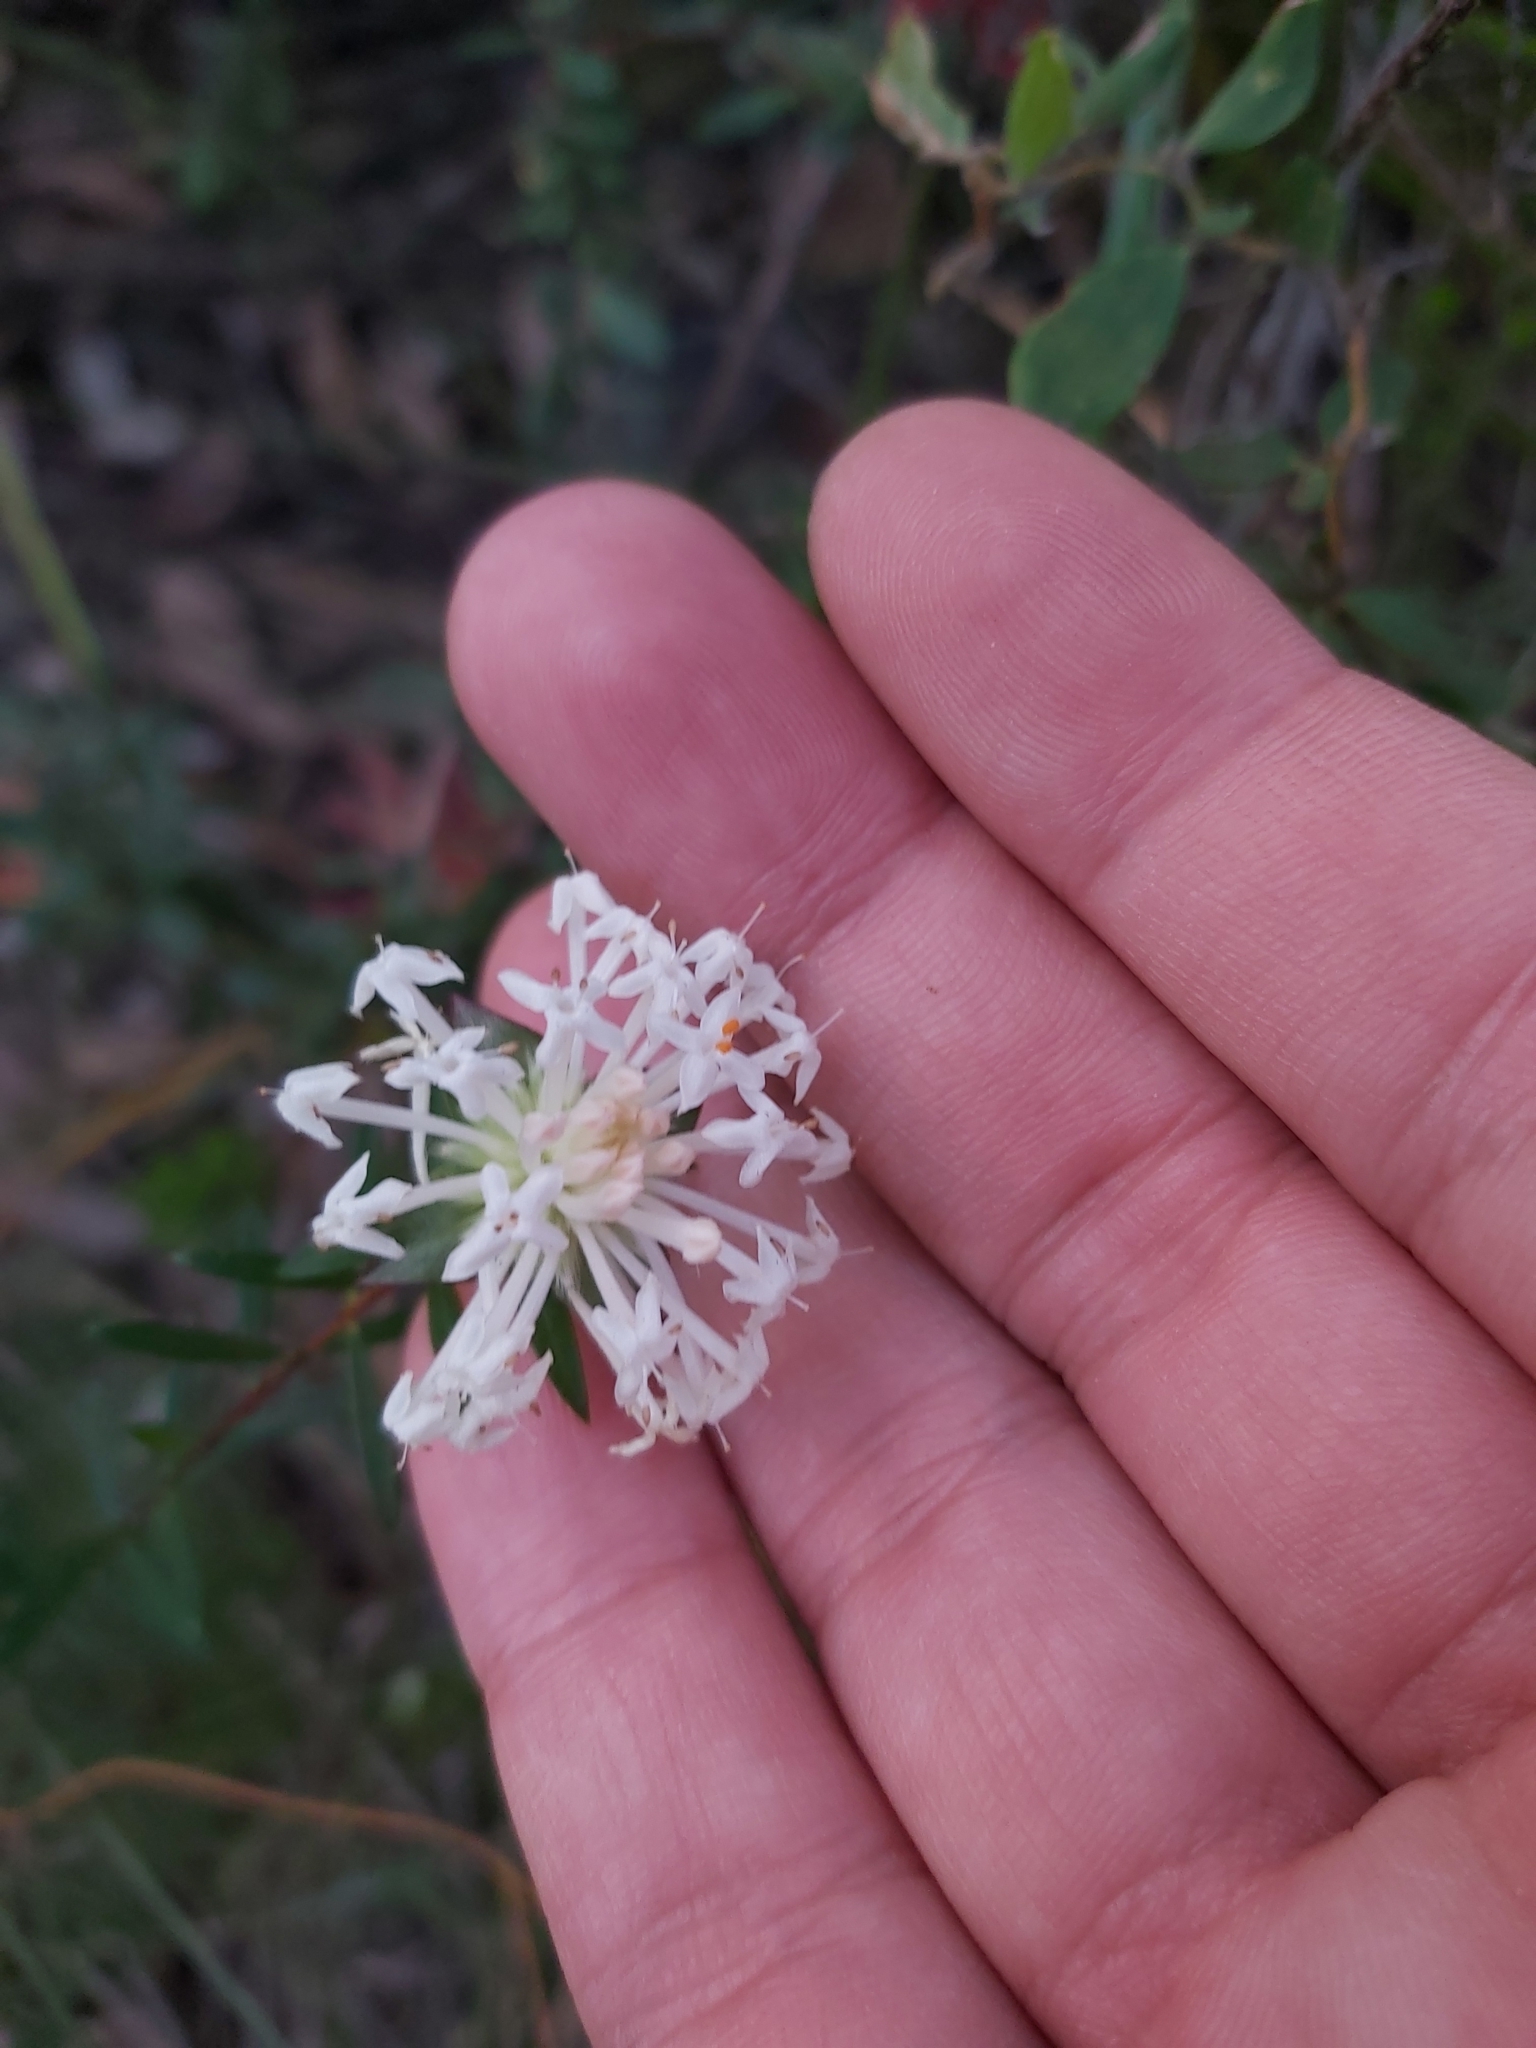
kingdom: Plantae
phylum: Tracheophyta
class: Magnoliopsida
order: Malvales
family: Thymelaeaceae
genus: Pimelea
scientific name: Pimelea linifolia
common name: Queen-of-the-bush
